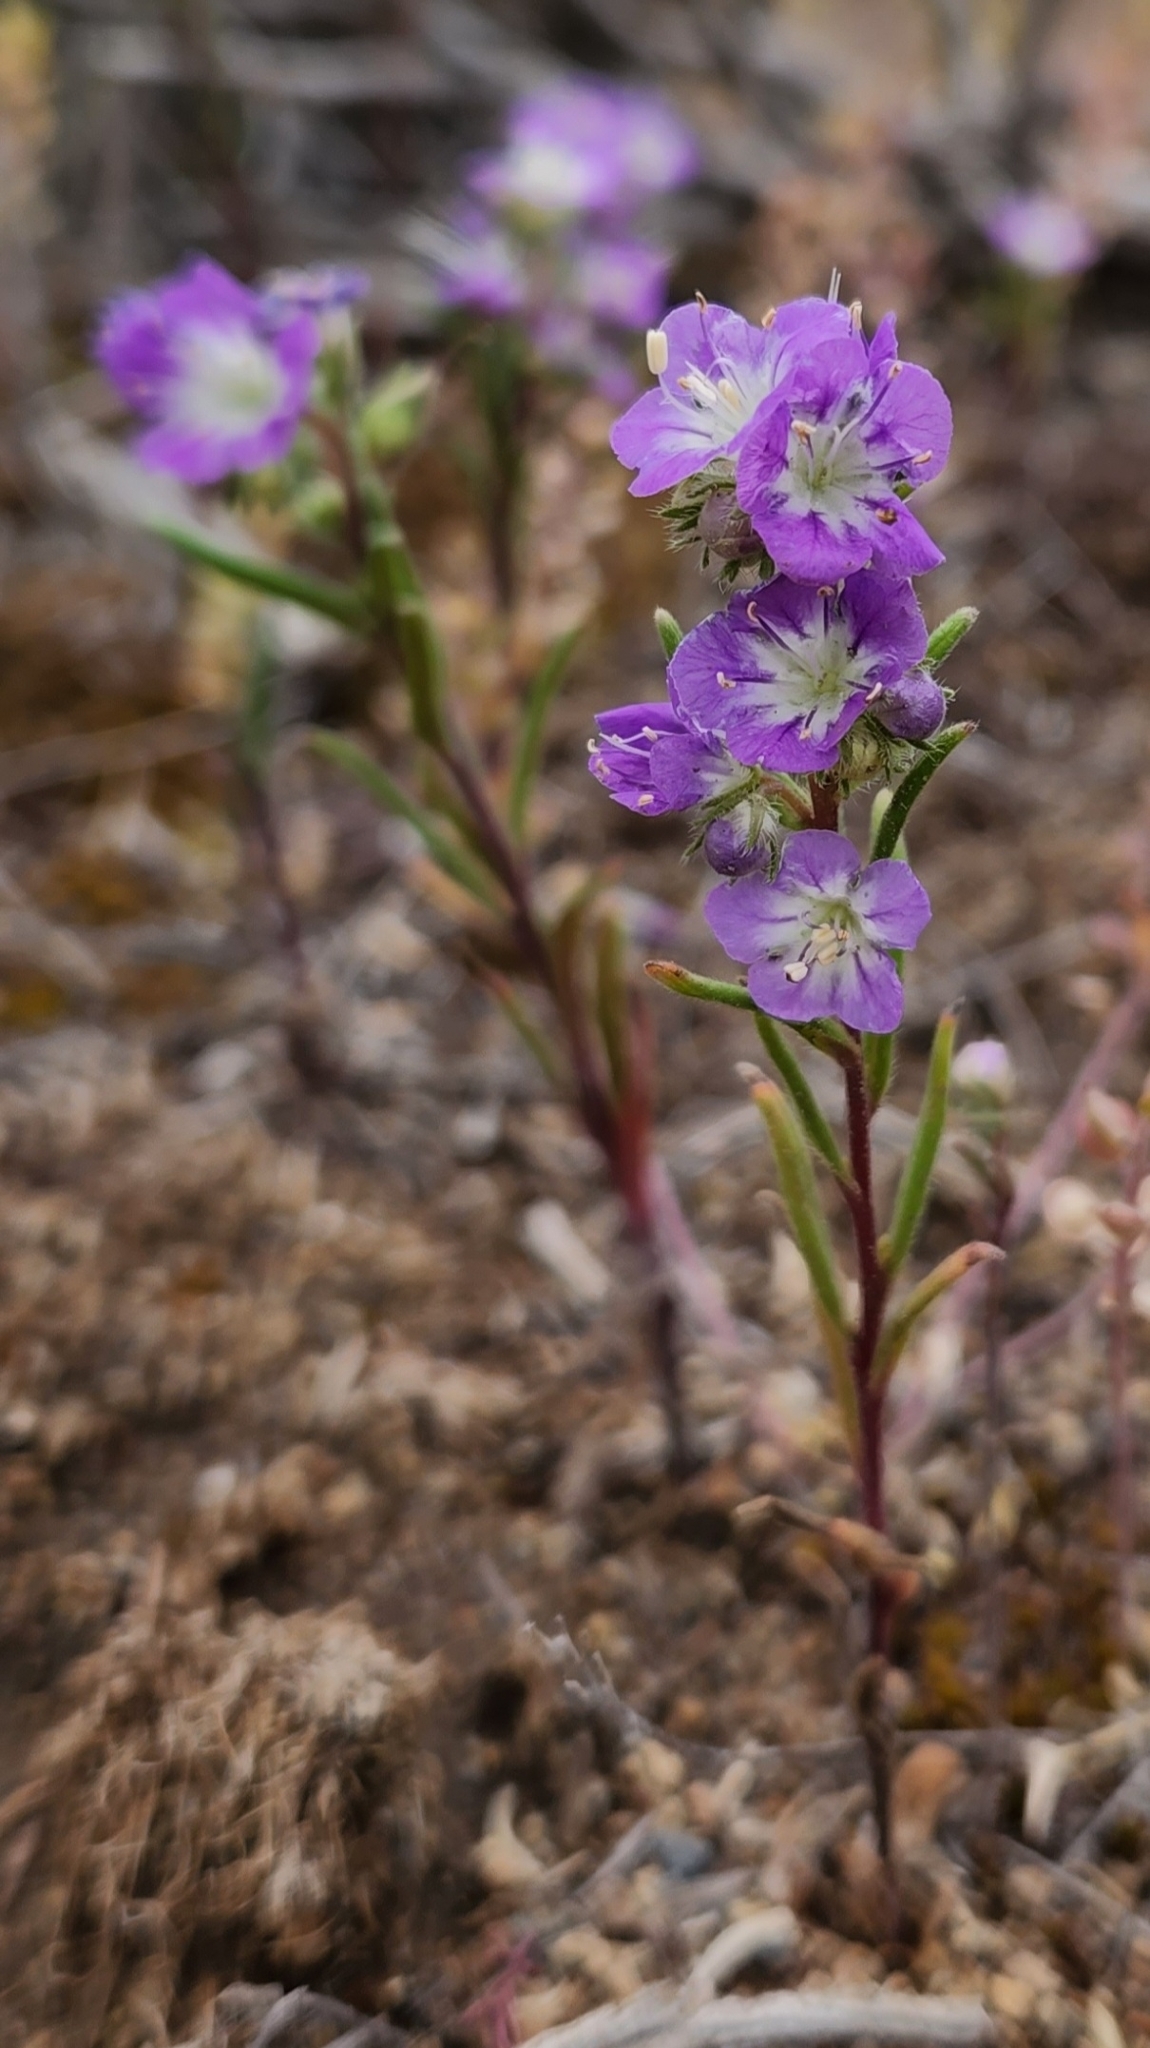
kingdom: Plantae
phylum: Tracheophyta
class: Magnoliopsida
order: Boraginales
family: Hydrophyllaceae
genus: Phacelia
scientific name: Phacelia linearis
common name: Linear-leaved phacelia
